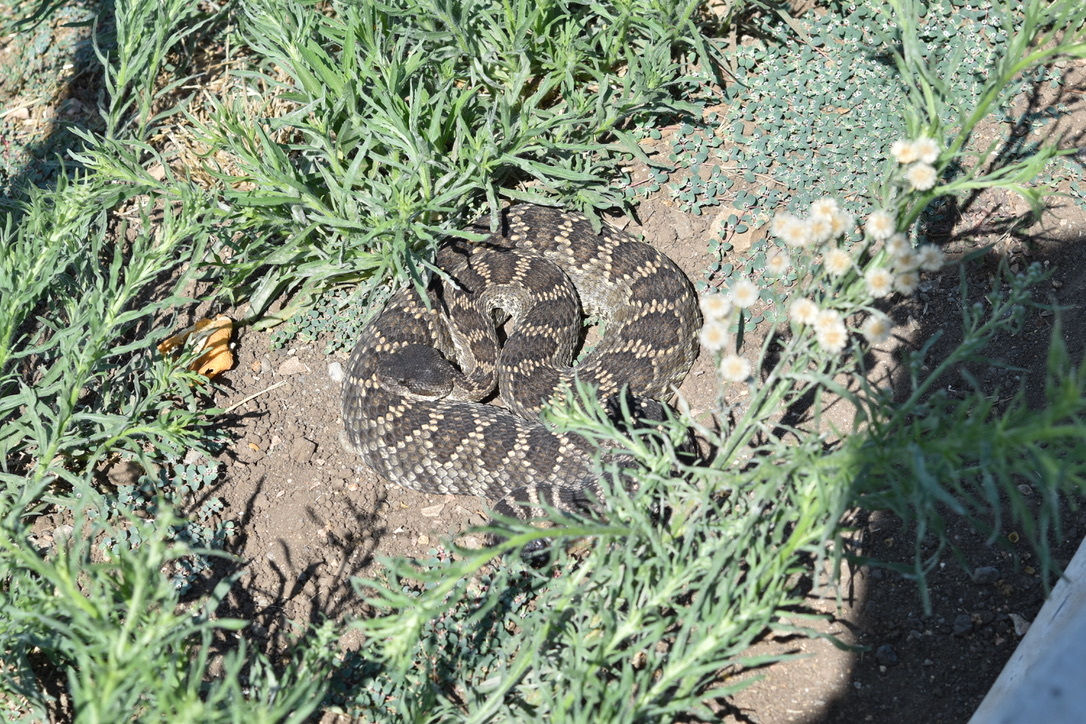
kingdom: Animalia
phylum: Chordata
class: Squamata
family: Viperidae
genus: Crotalus
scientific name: Crotalus oreganus
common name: Abyssus
